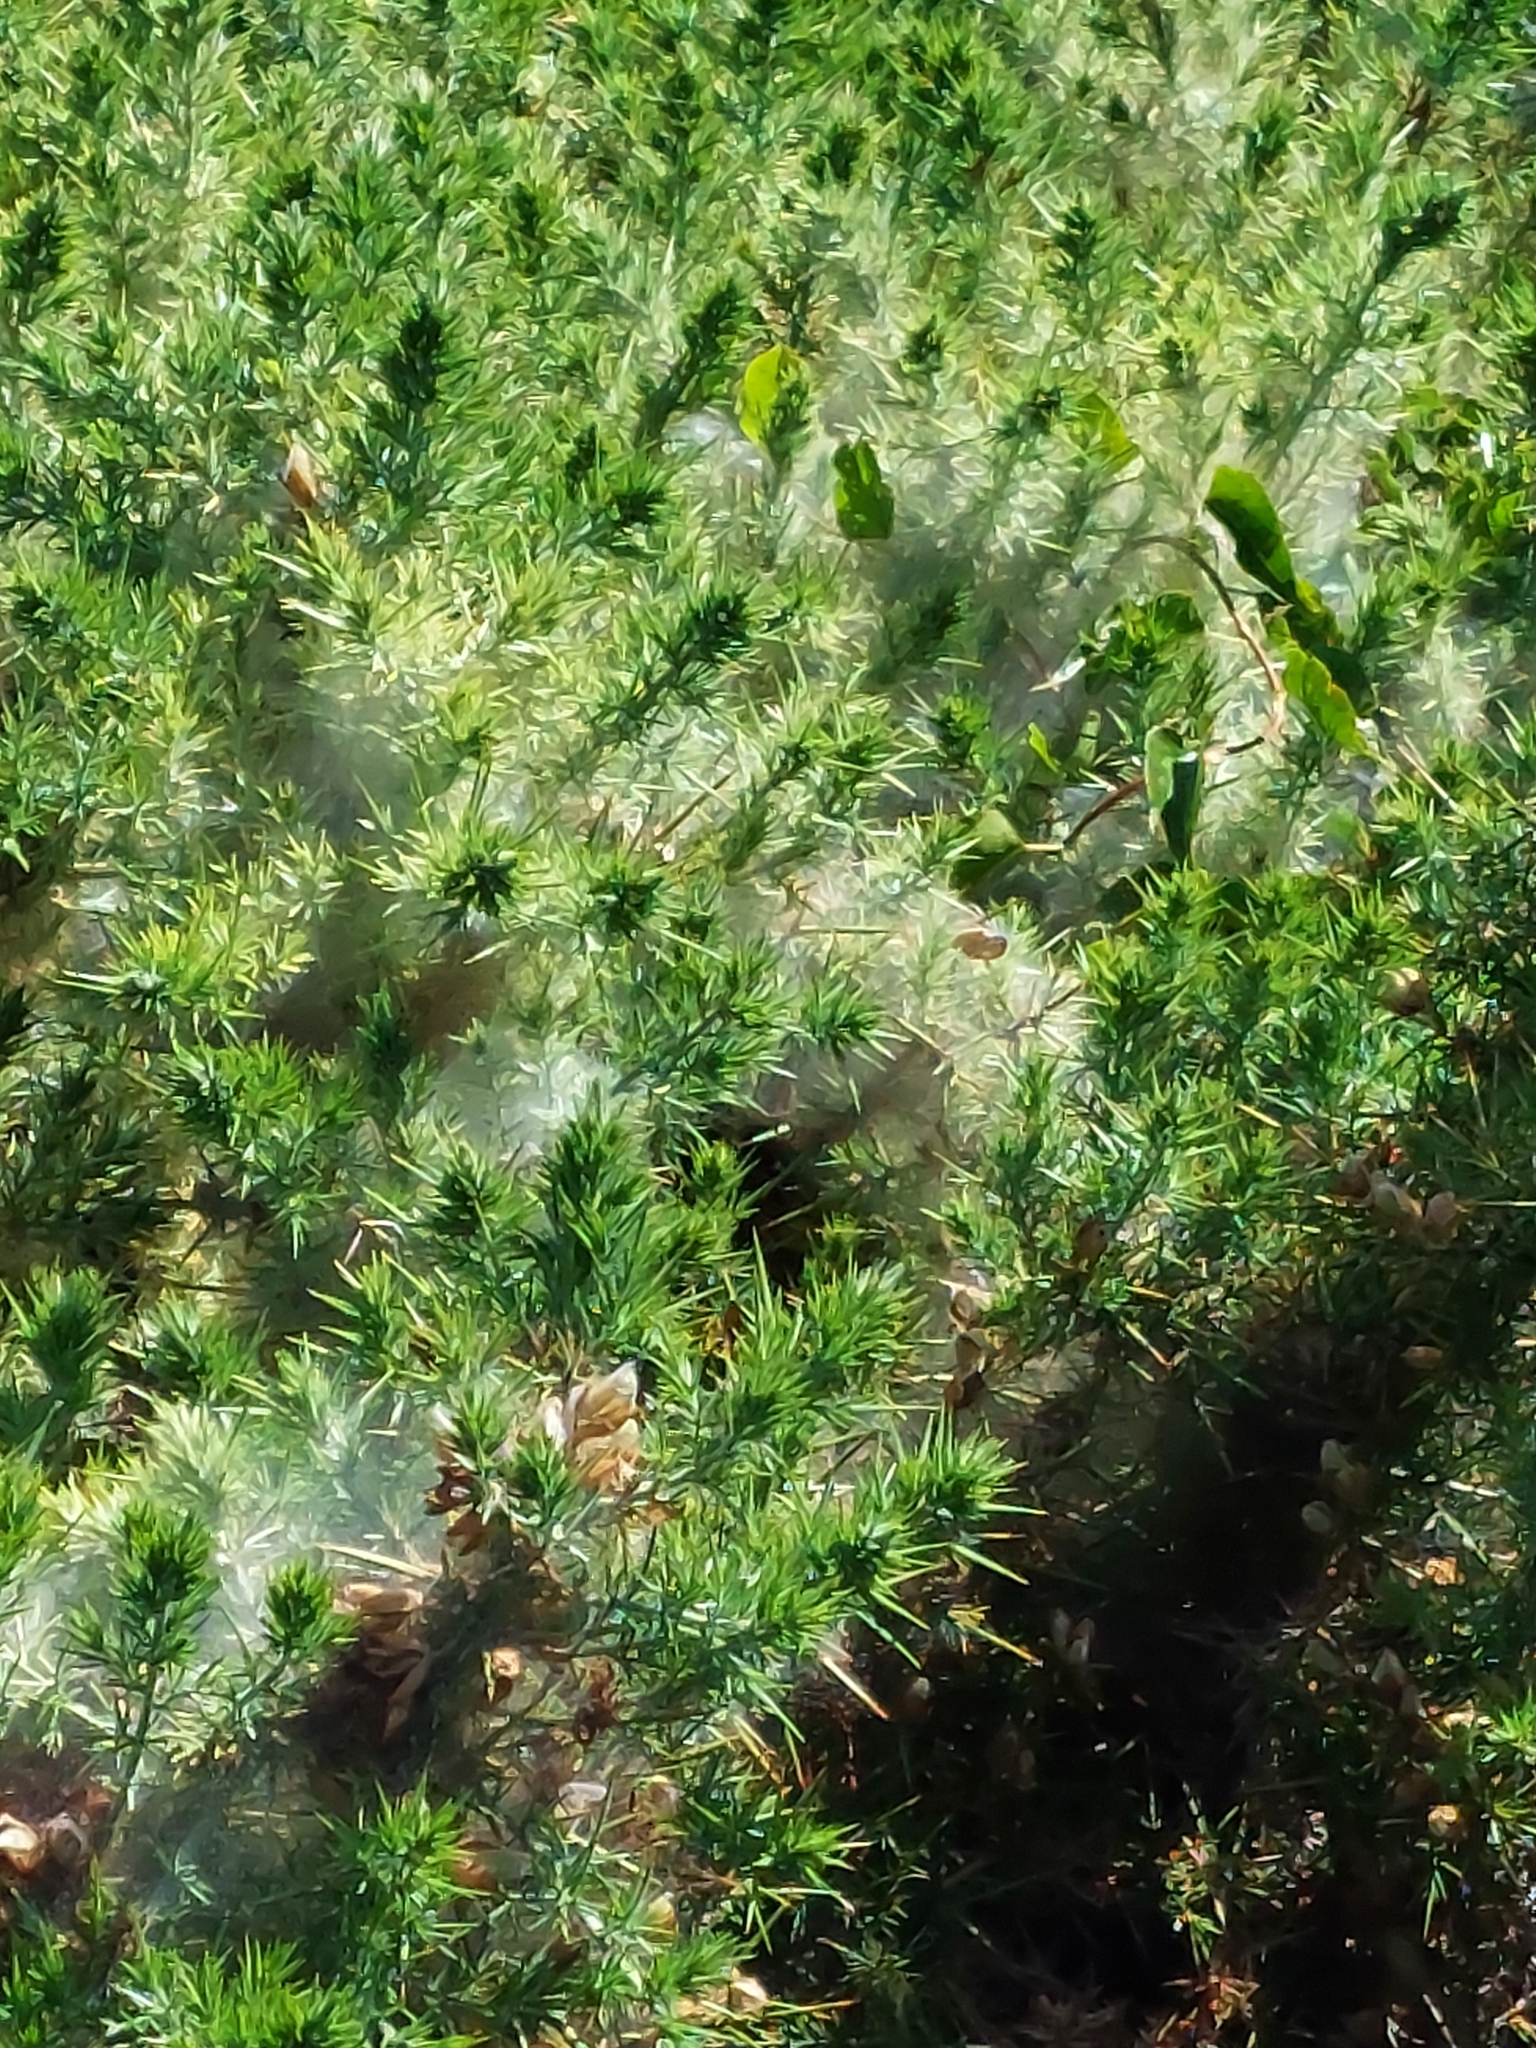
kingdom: Animalia
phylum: Arthropoda
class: Arachnida
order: Trombidiformes
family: Tetranychidae
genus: Tetranychus
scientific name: Tetranychus lintearius
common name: Gorse spider mite
